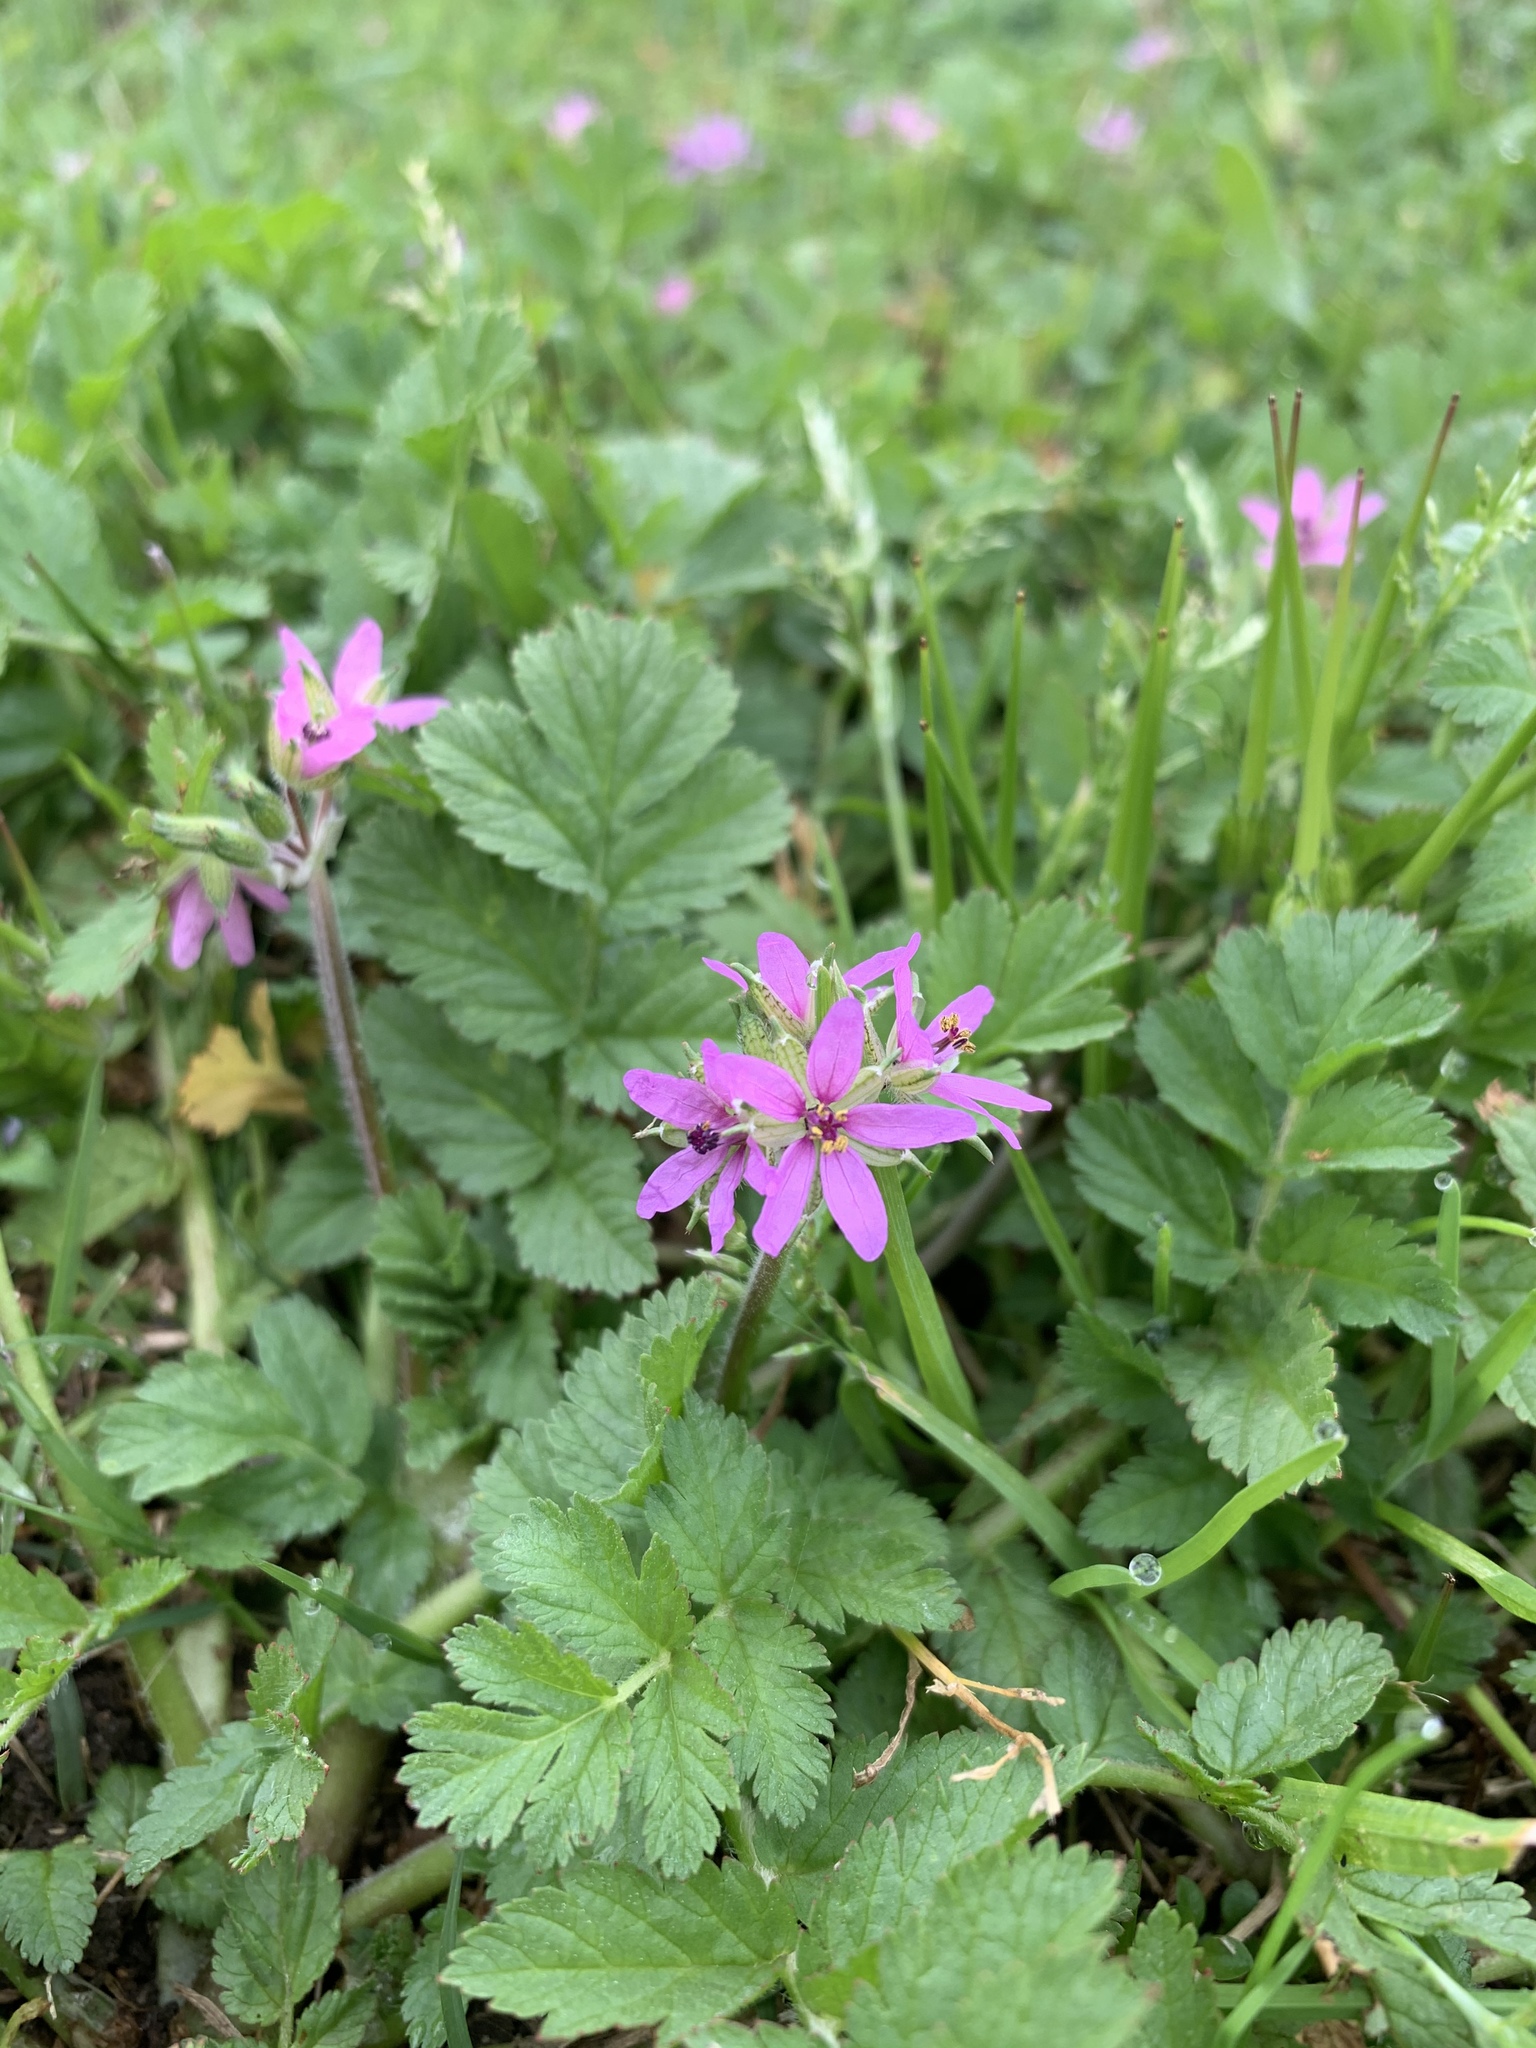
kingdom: Plantae
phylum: Tracheophyta
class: Magnoliopsida
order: Geraniales
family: Geraniaceae
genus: Erodium
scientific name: Erodium moschatum
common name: Musk stork's-bill
